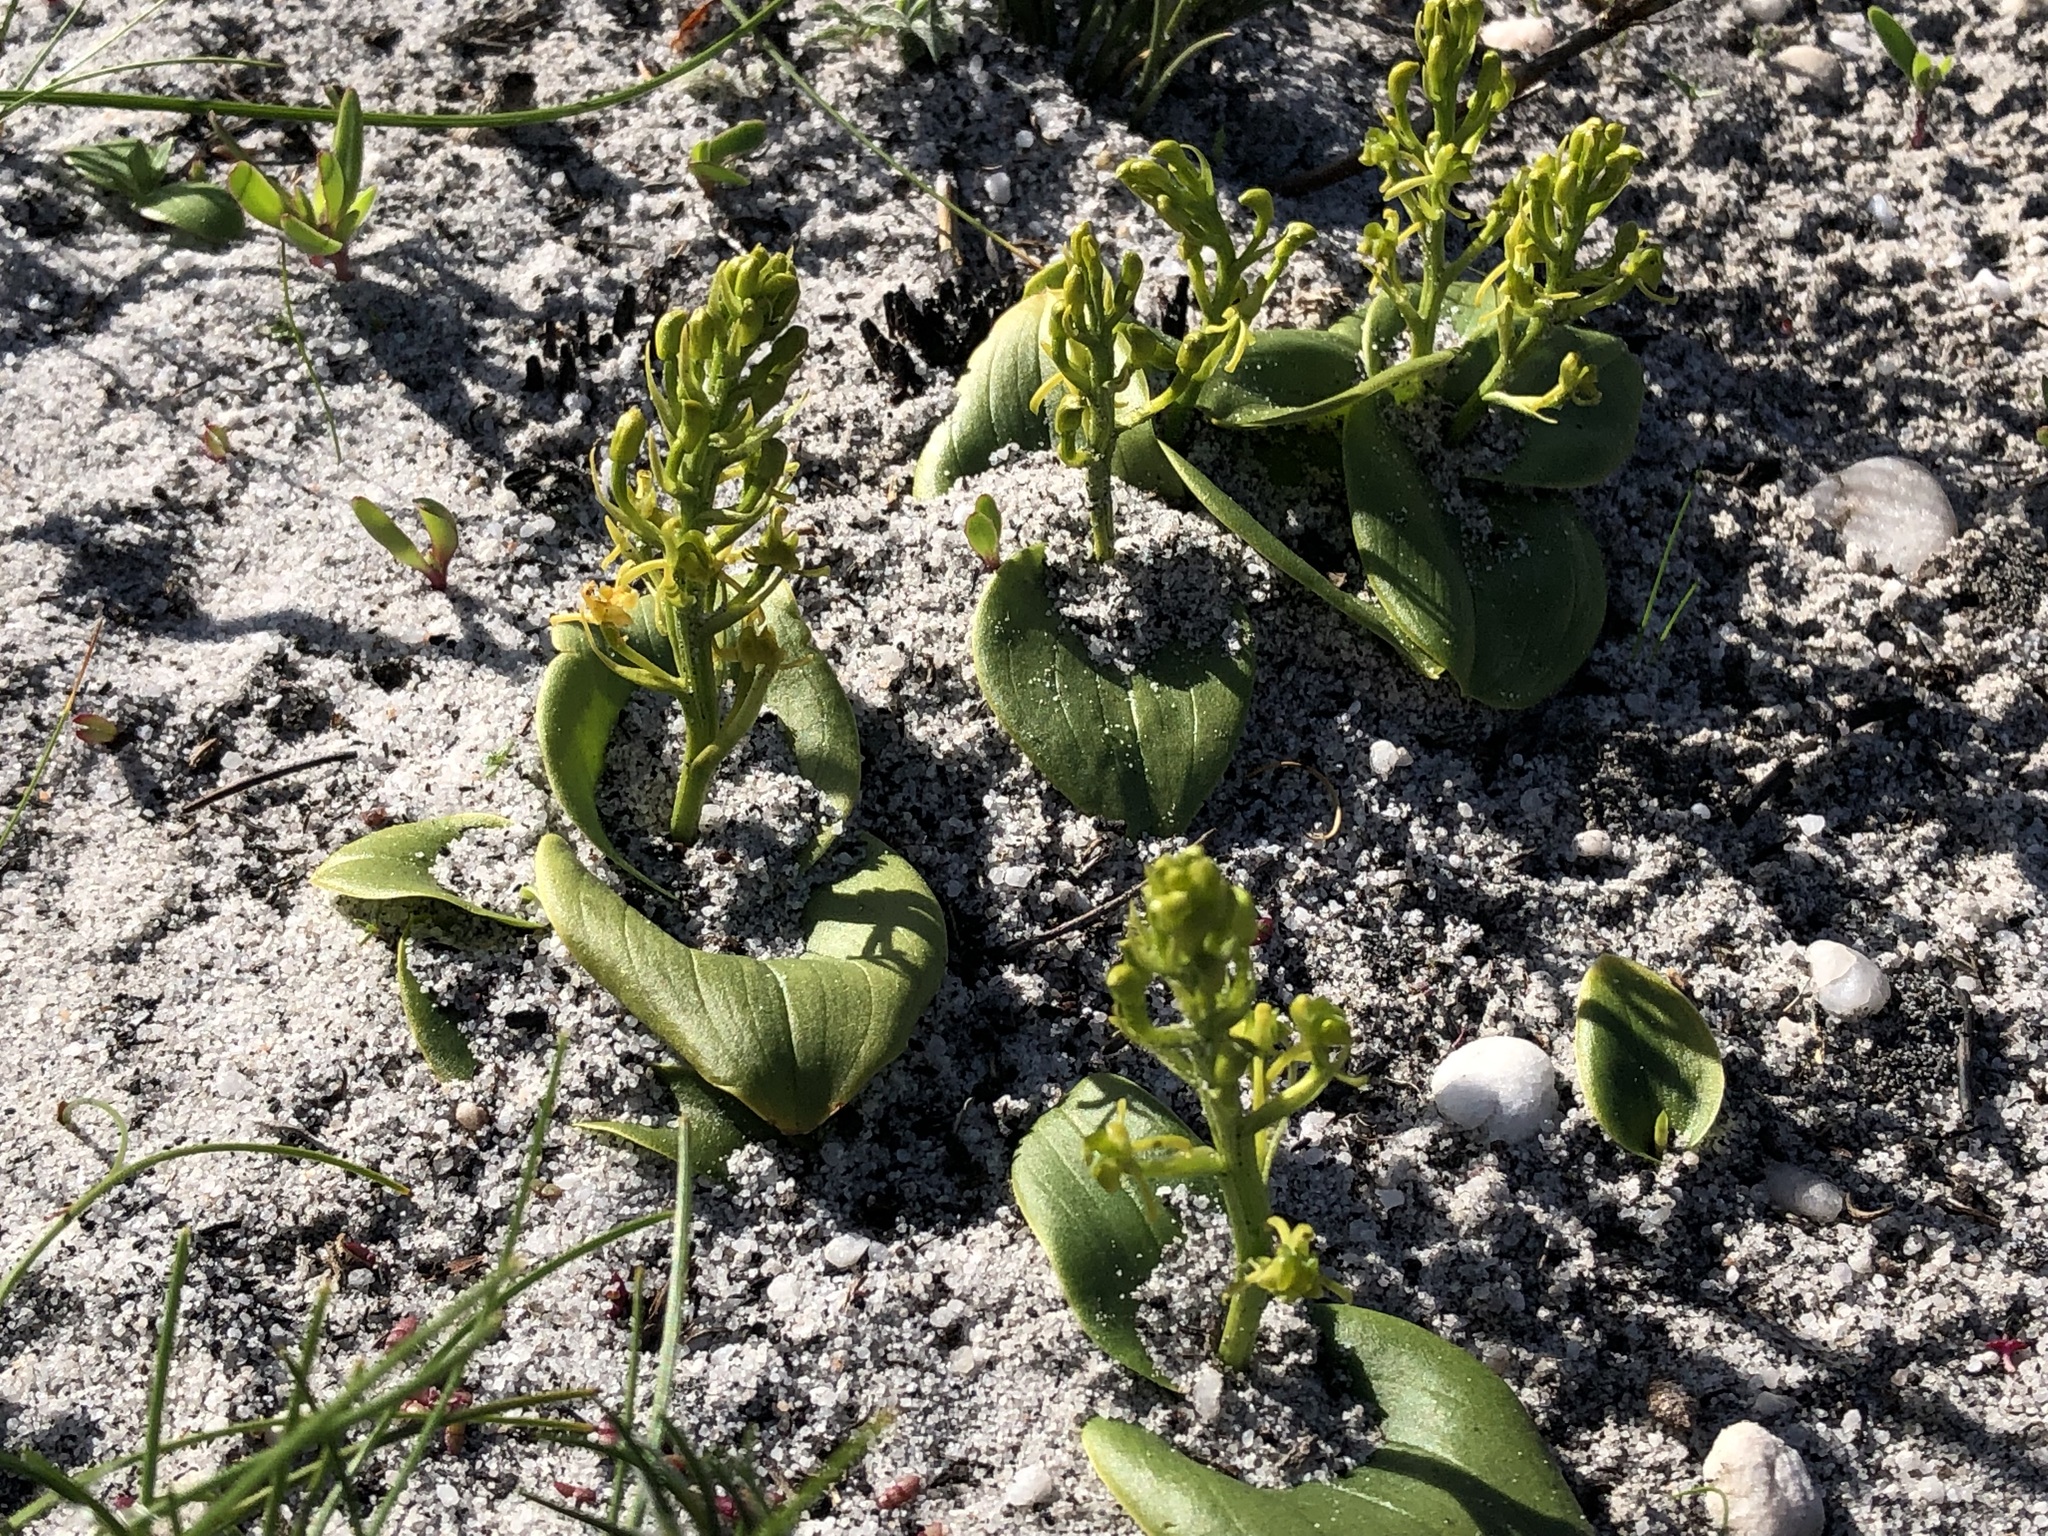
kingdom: Plantae
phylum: Tracheophyta
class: Liliopsida
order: Asparagales
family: Orchidaceae
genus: Liparis
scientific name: Liparis capensis
